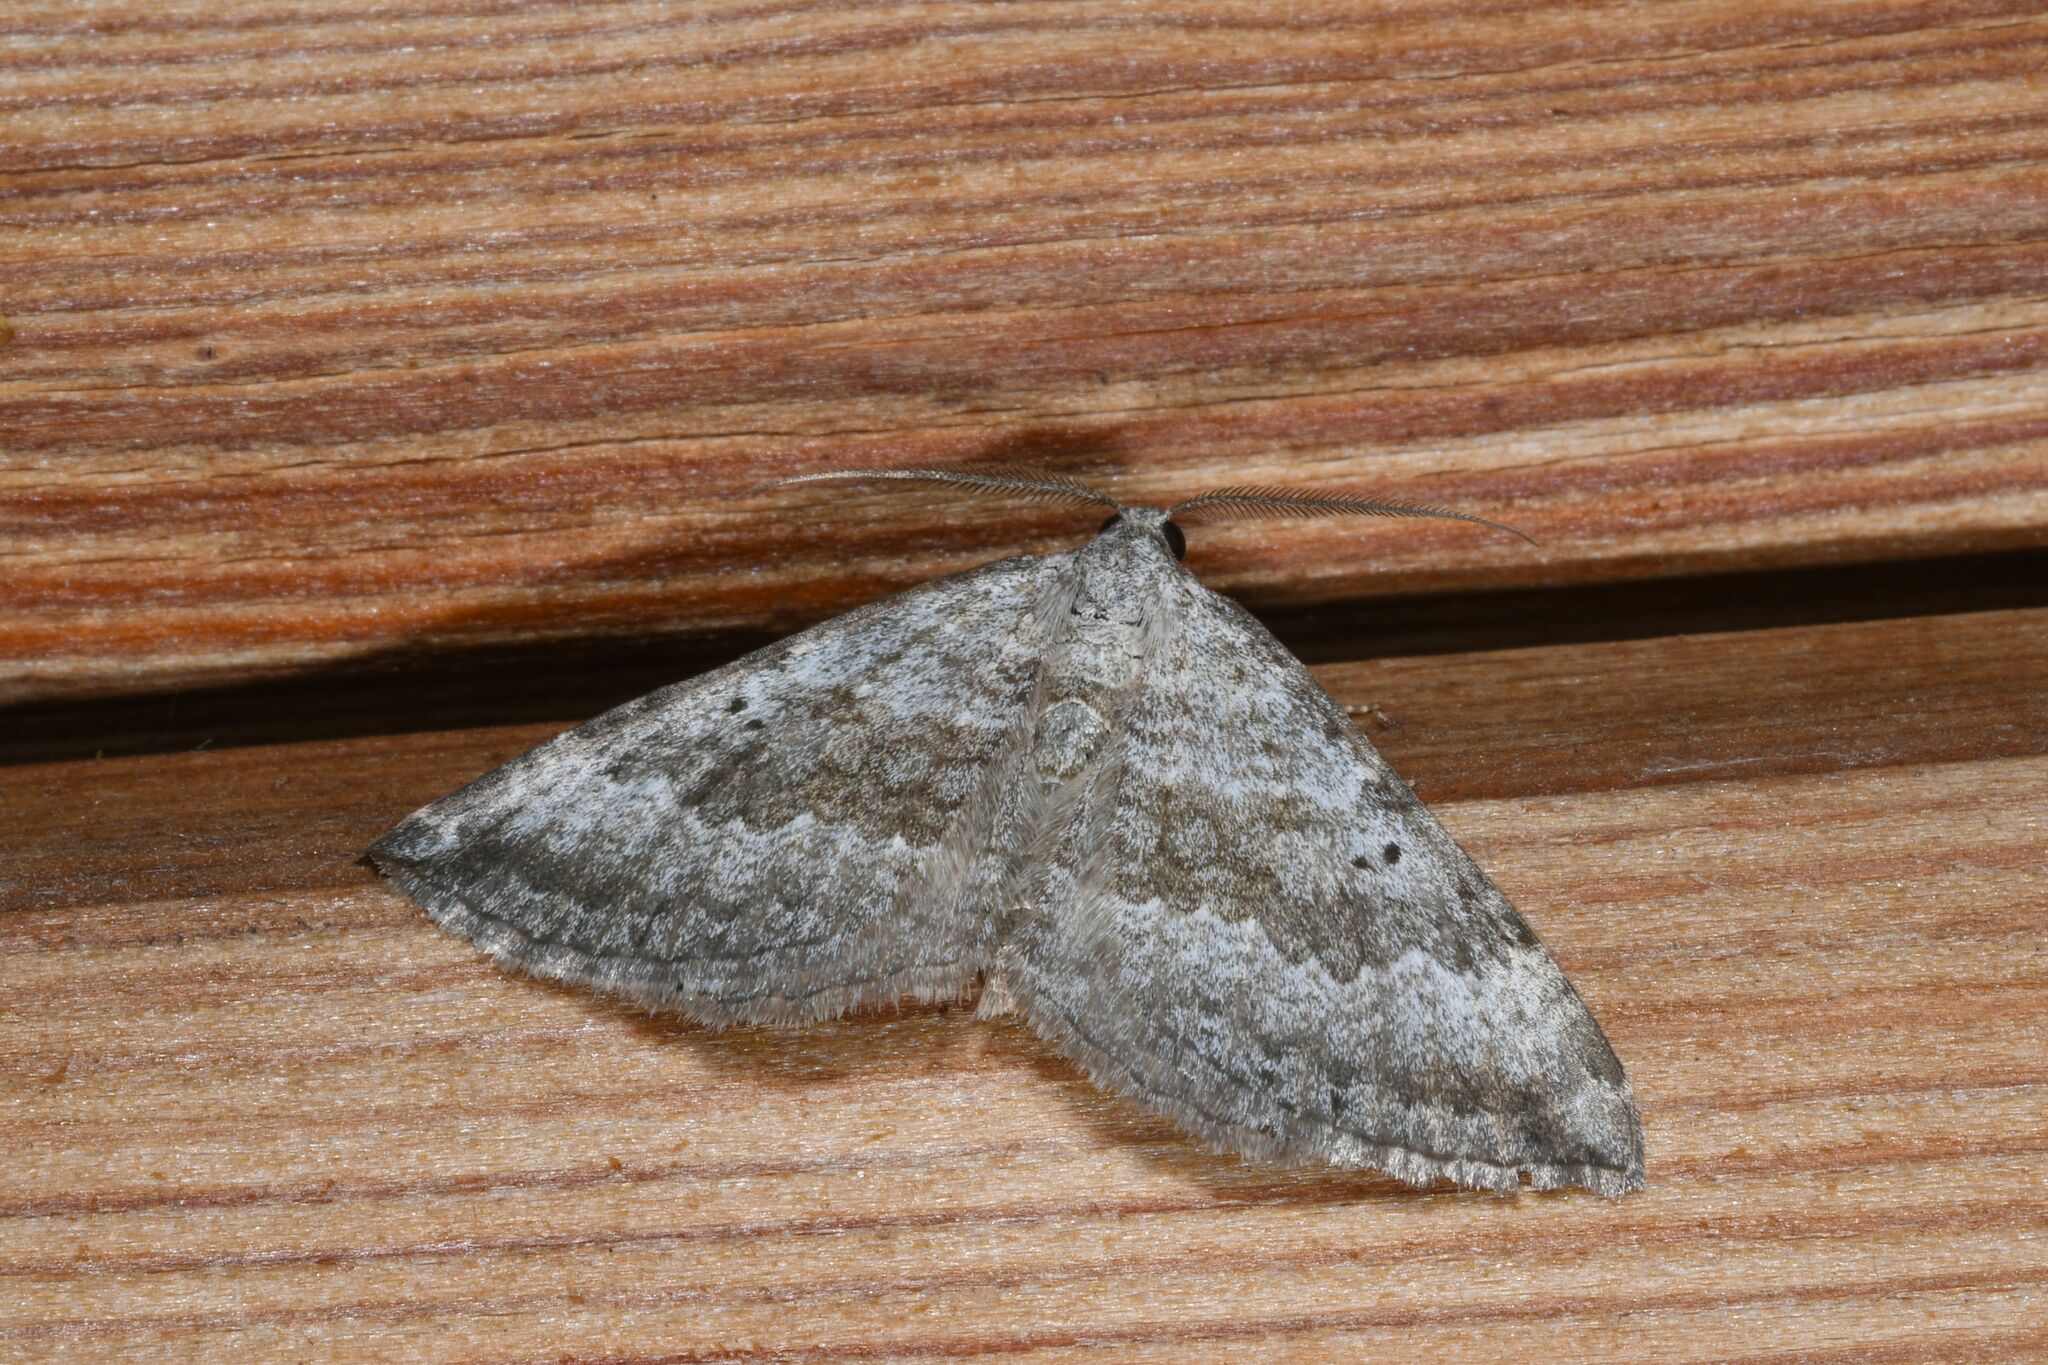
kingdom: Animalia
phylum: Arthropoda
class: Insecta
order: Lepidoptera
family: Geometridae
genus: Scotopteryx
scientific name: Scotopteryx bipunctaria
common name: Chalk carpet
